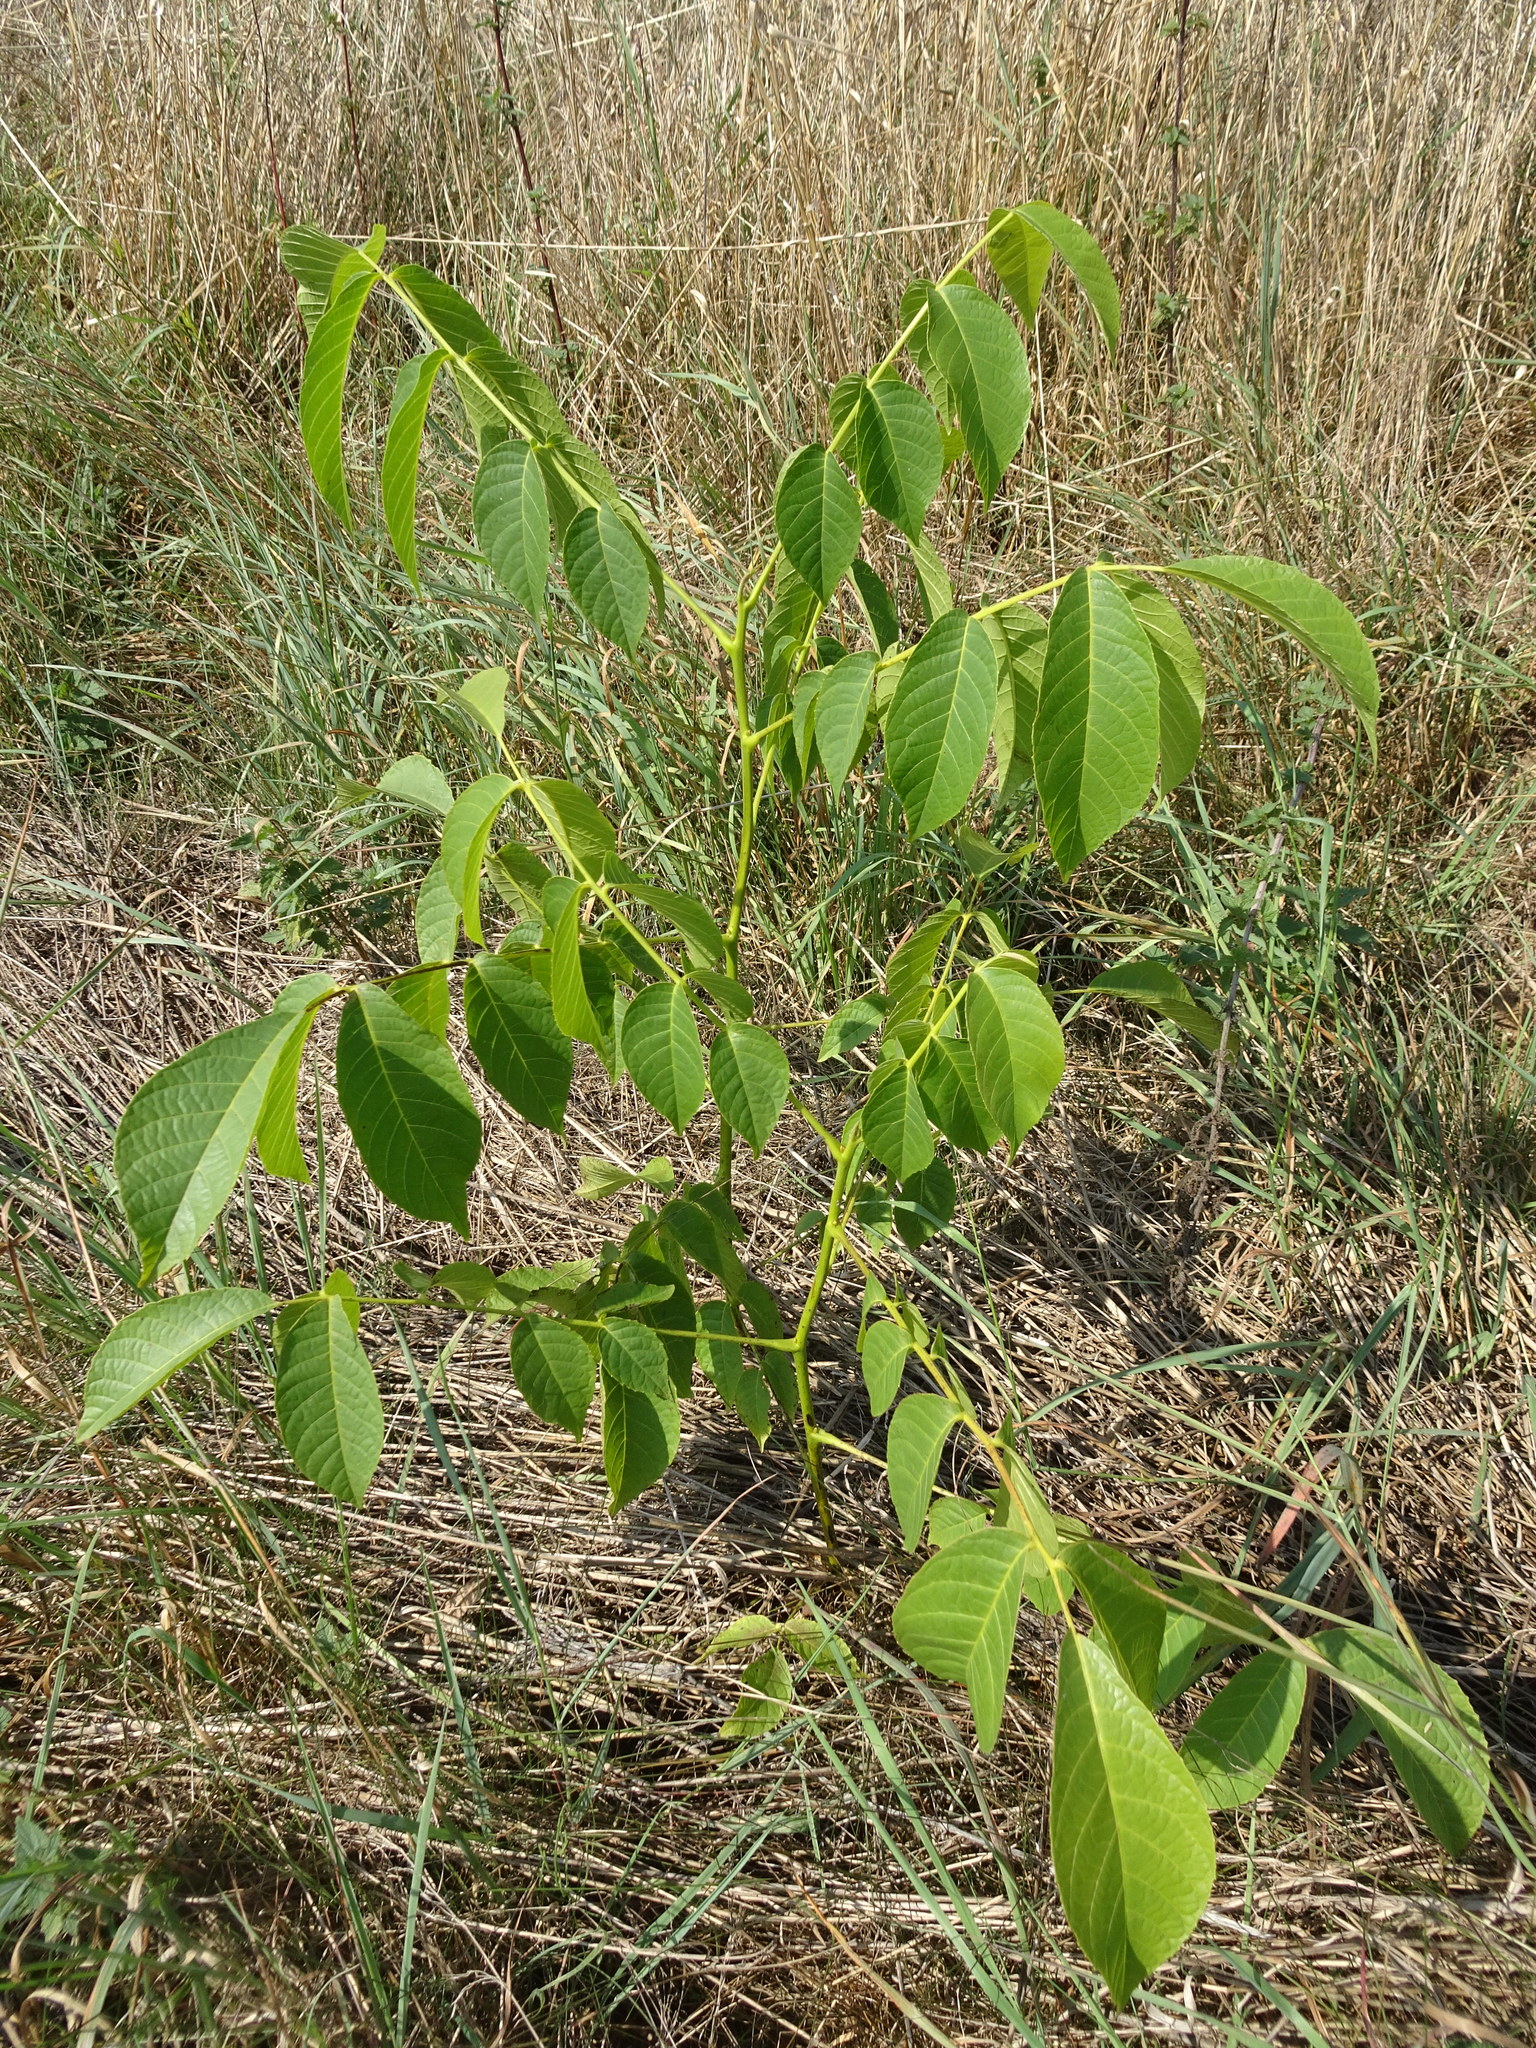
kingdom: Plantae
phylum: Tracheophyta
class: Magnoliopsida
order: Fagales
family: Juglandaceae
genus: Juglans
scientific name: Juglans regia
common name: Walnut
